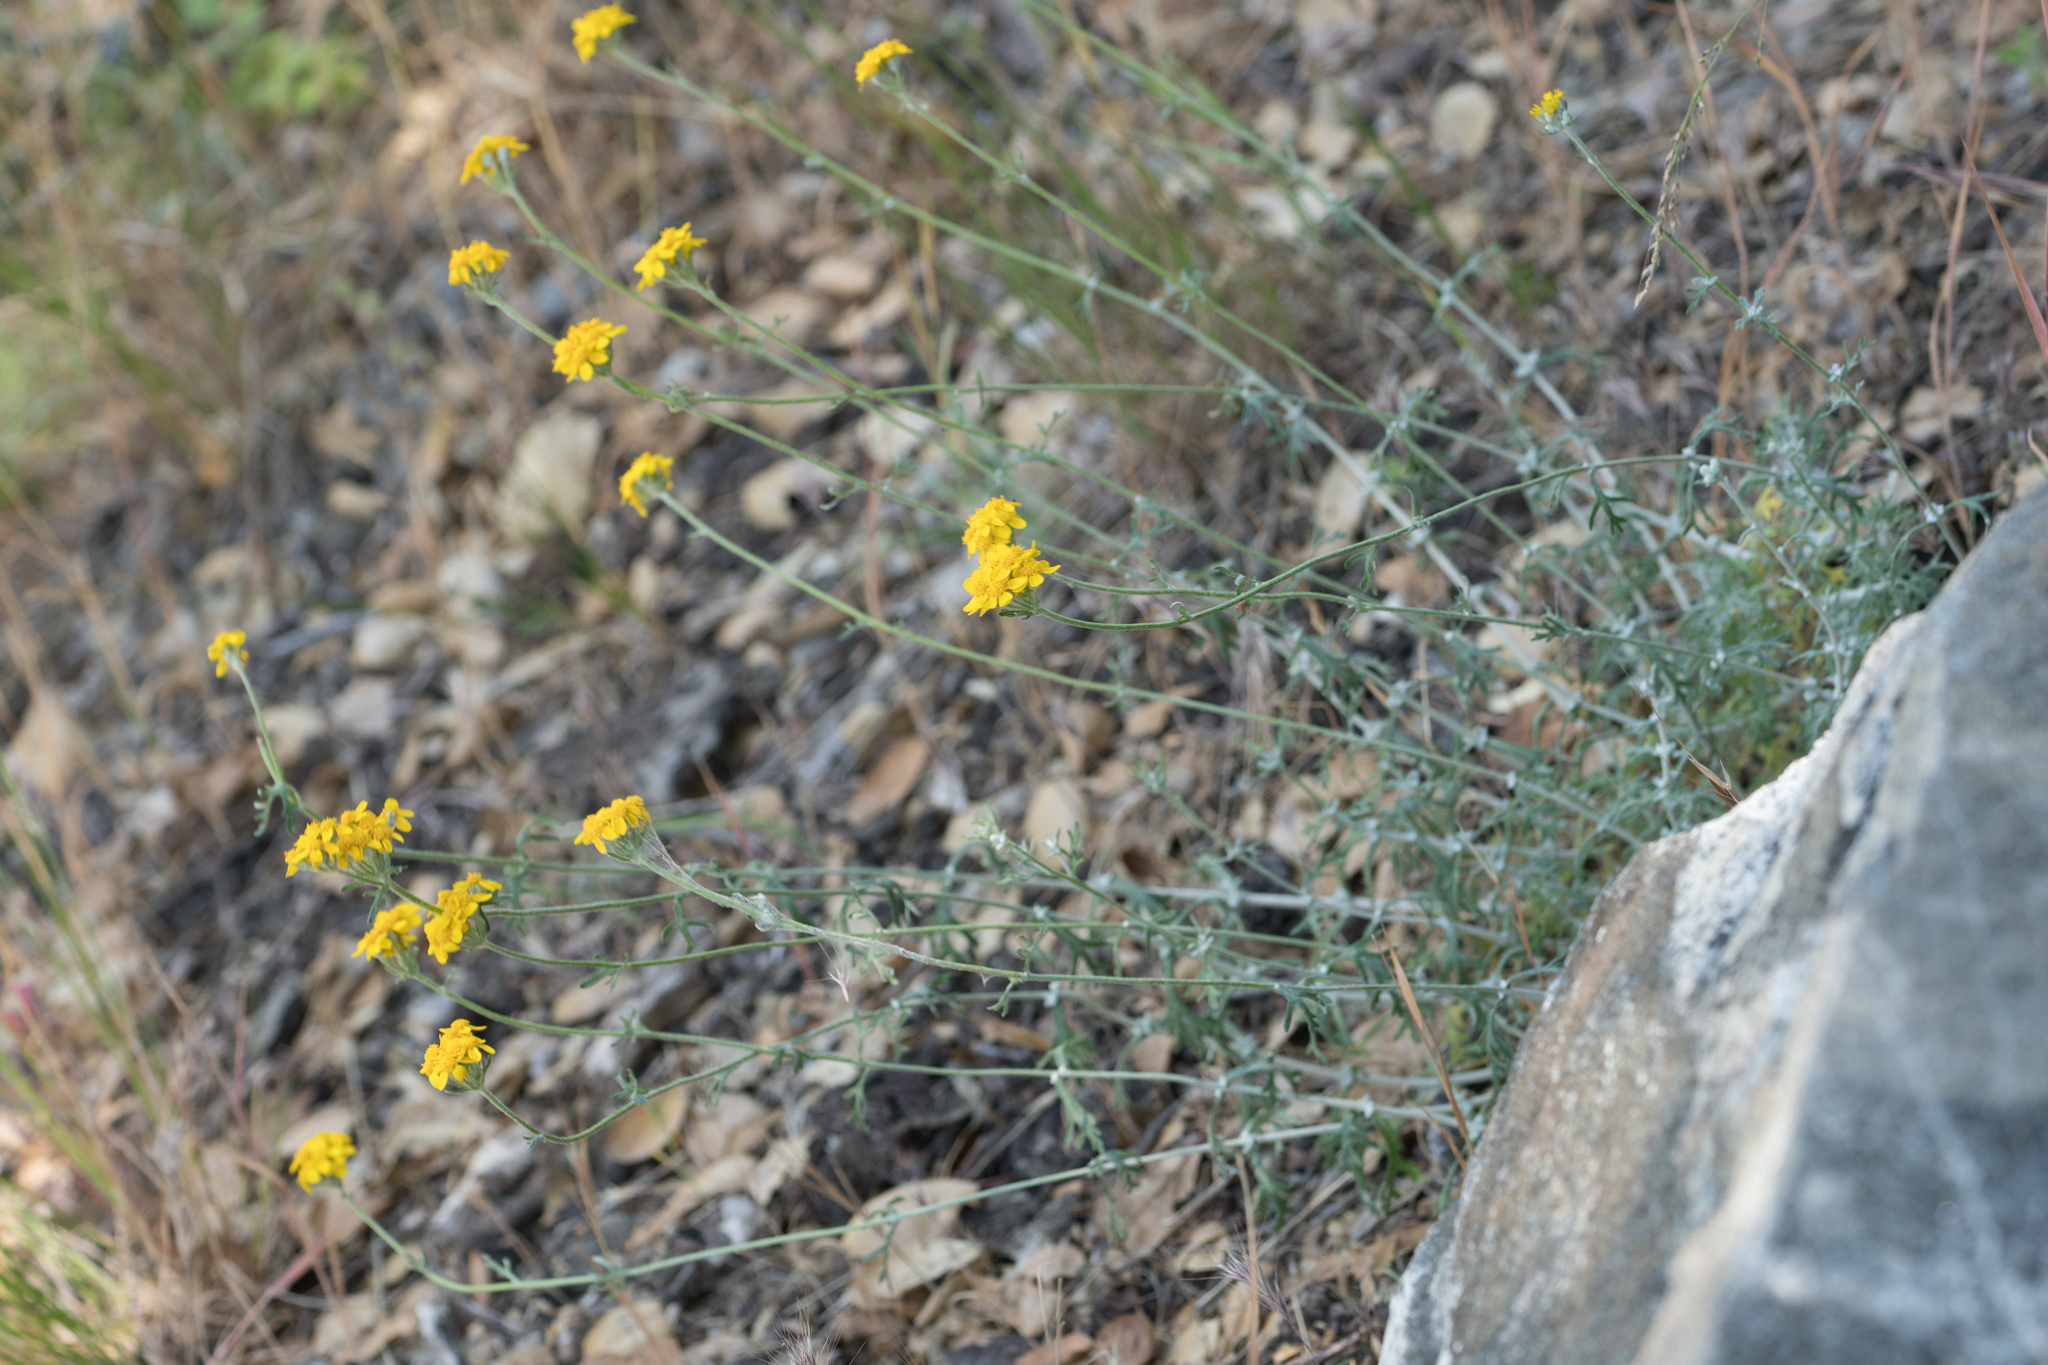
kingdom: Plantae
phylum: Tracheophyta
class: Magnoliopsida
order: Asterales
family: Asteraceae
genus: Eriophyllum
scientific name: Eriophyllum confertiflorum
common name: Golden-yarrow
